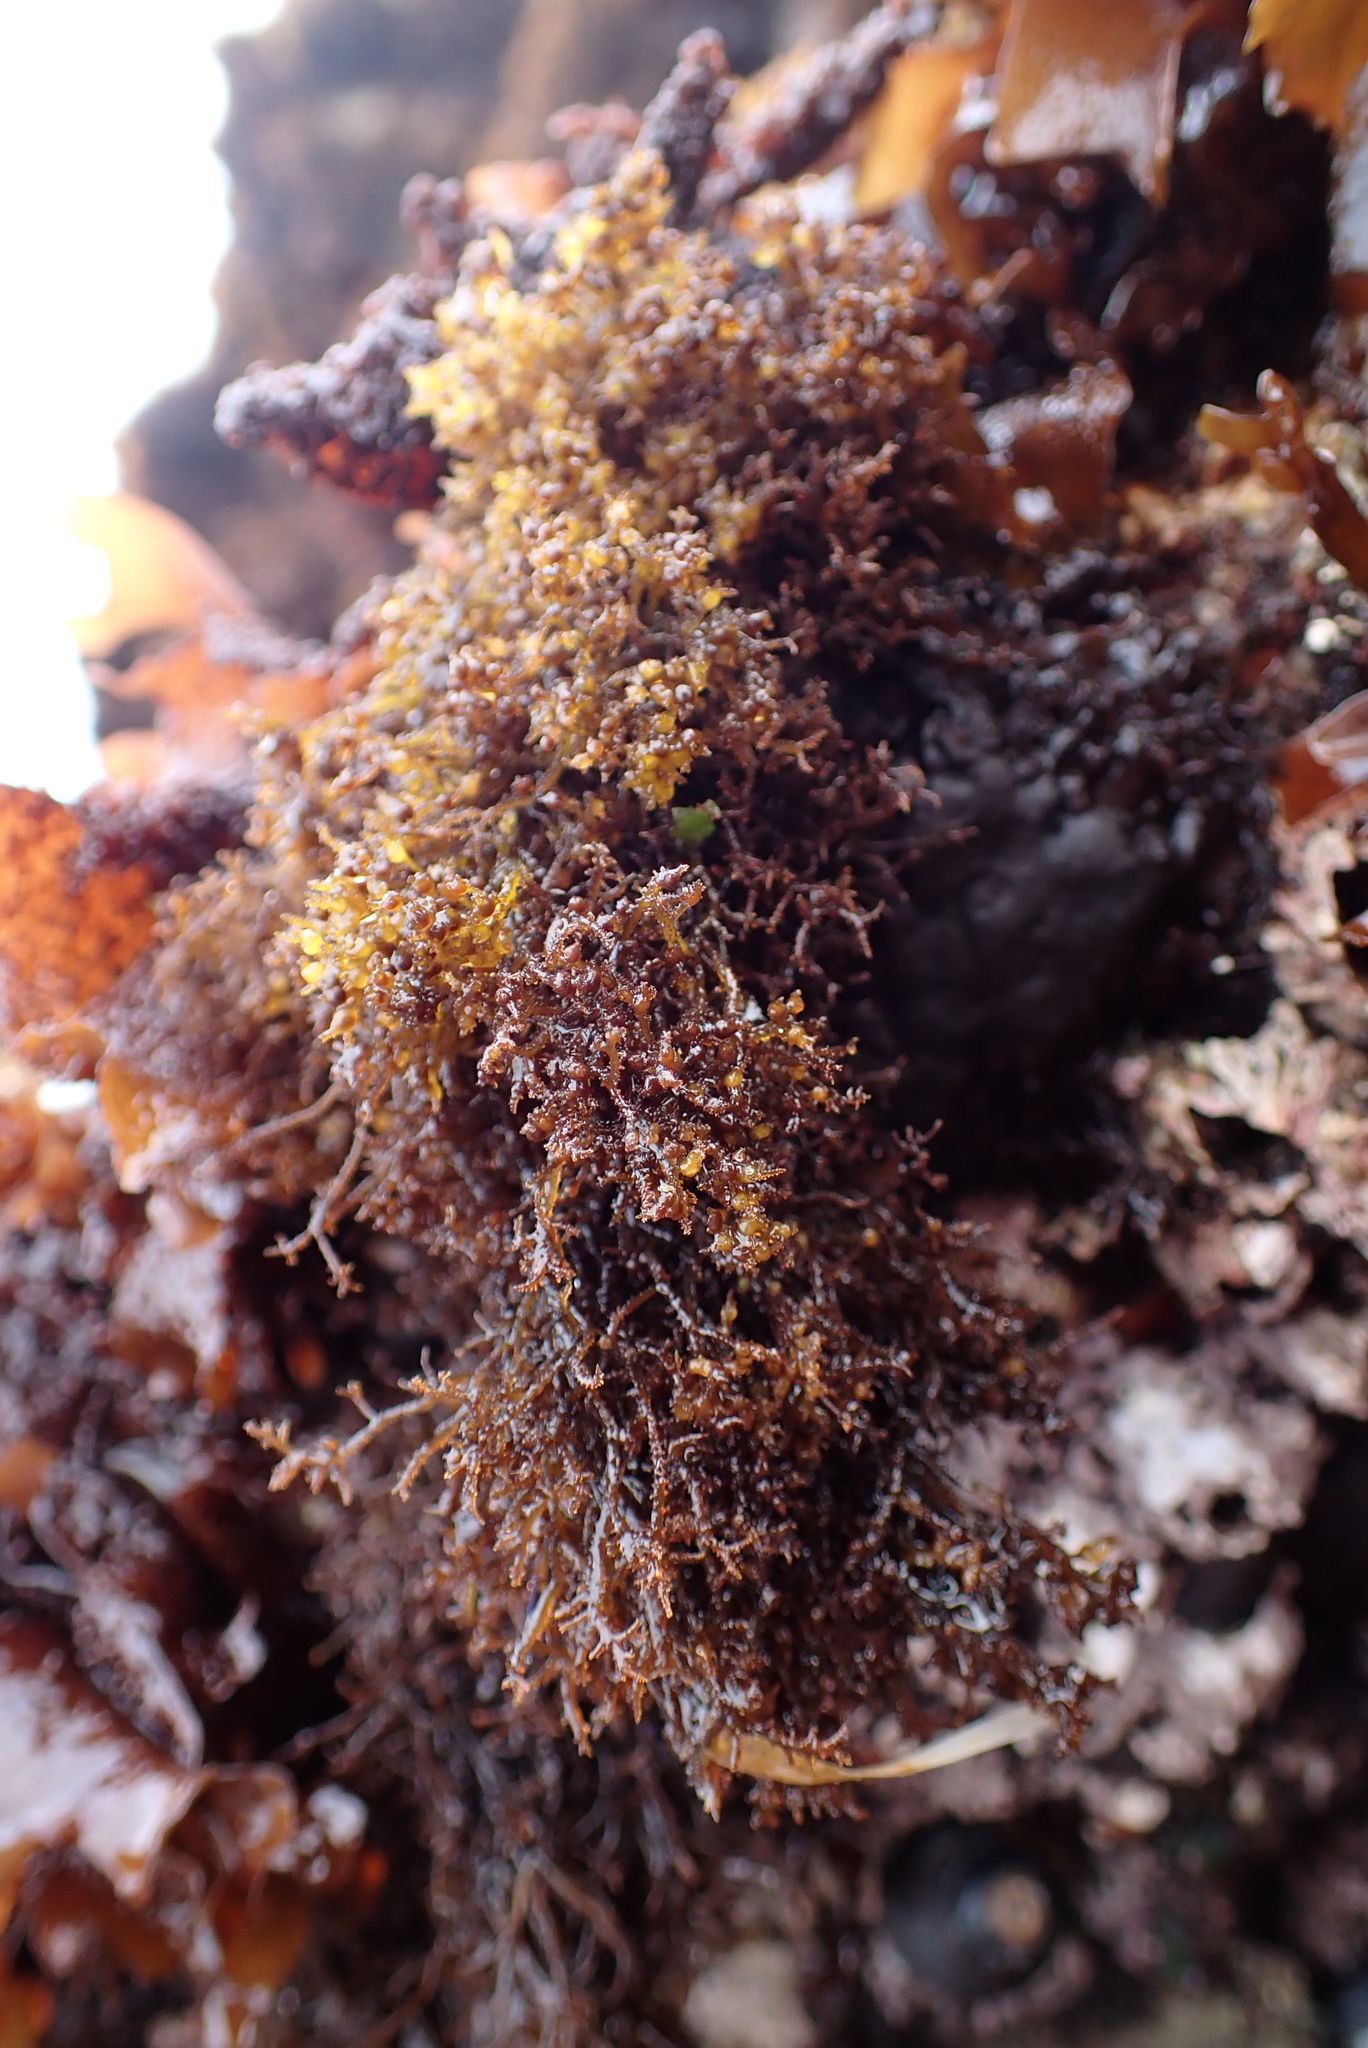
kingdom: Plantae
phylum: Rhodophyta
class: Florideophyceae
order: Gigartinales
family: Endocladiaceae
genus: Endocladia
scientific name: Endocladia muricata
